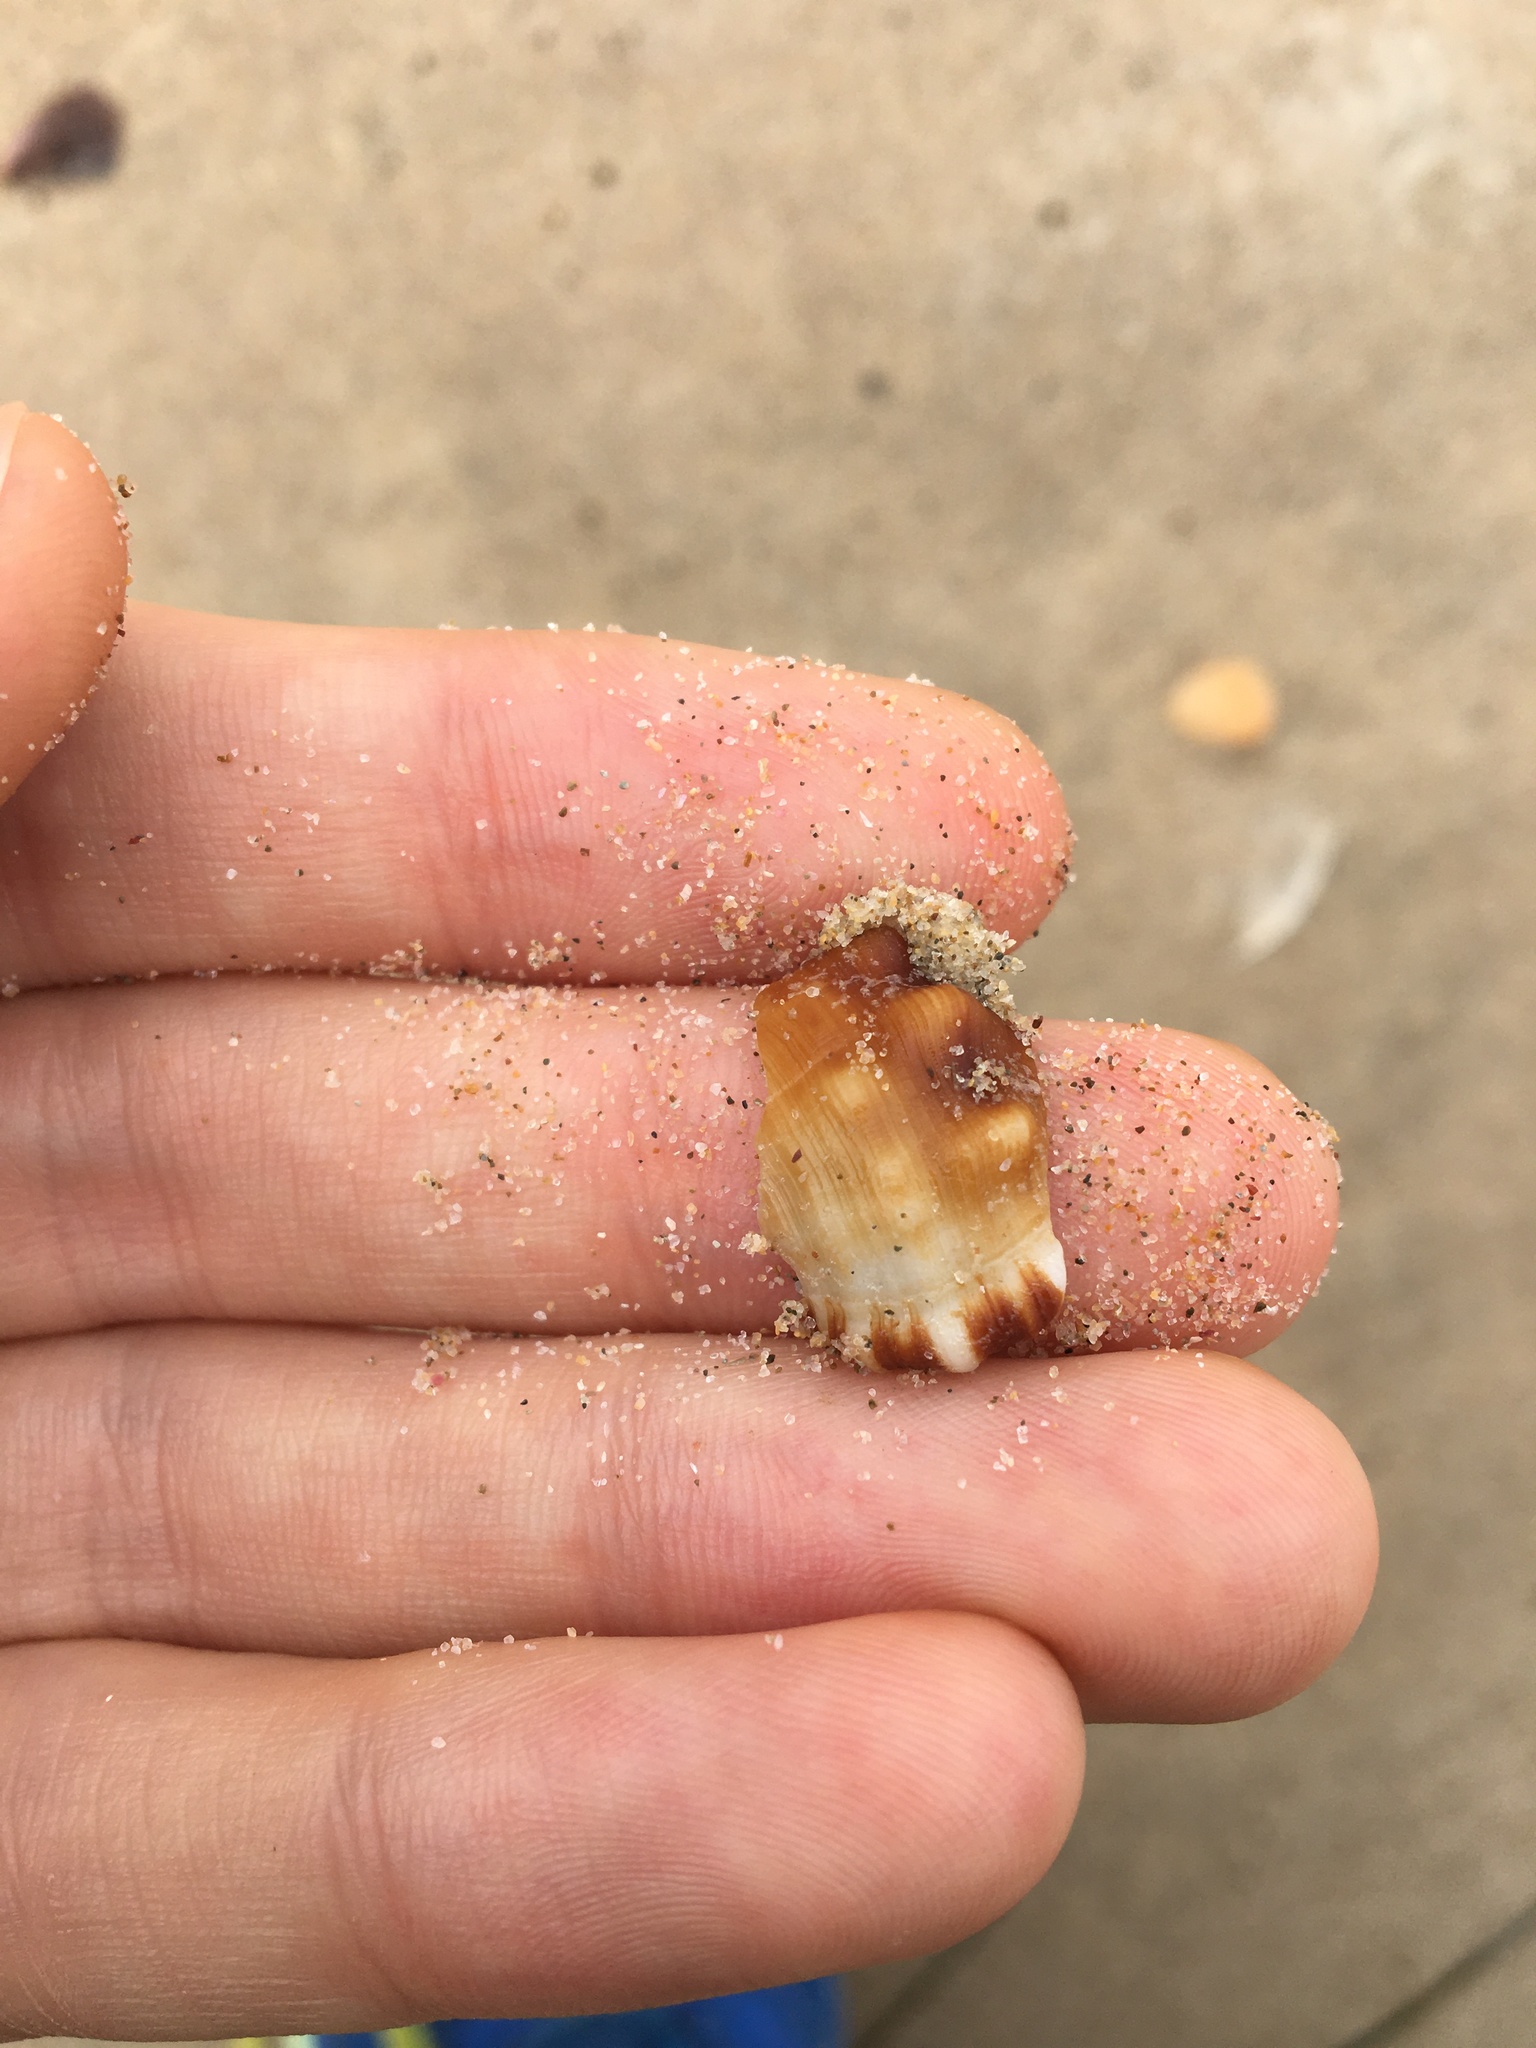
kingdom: Animalia
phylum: Mollusca
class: Gastropoda
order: Littorinimorpha
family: Ranellidae
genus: Ranella
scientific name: Ranella australasia
